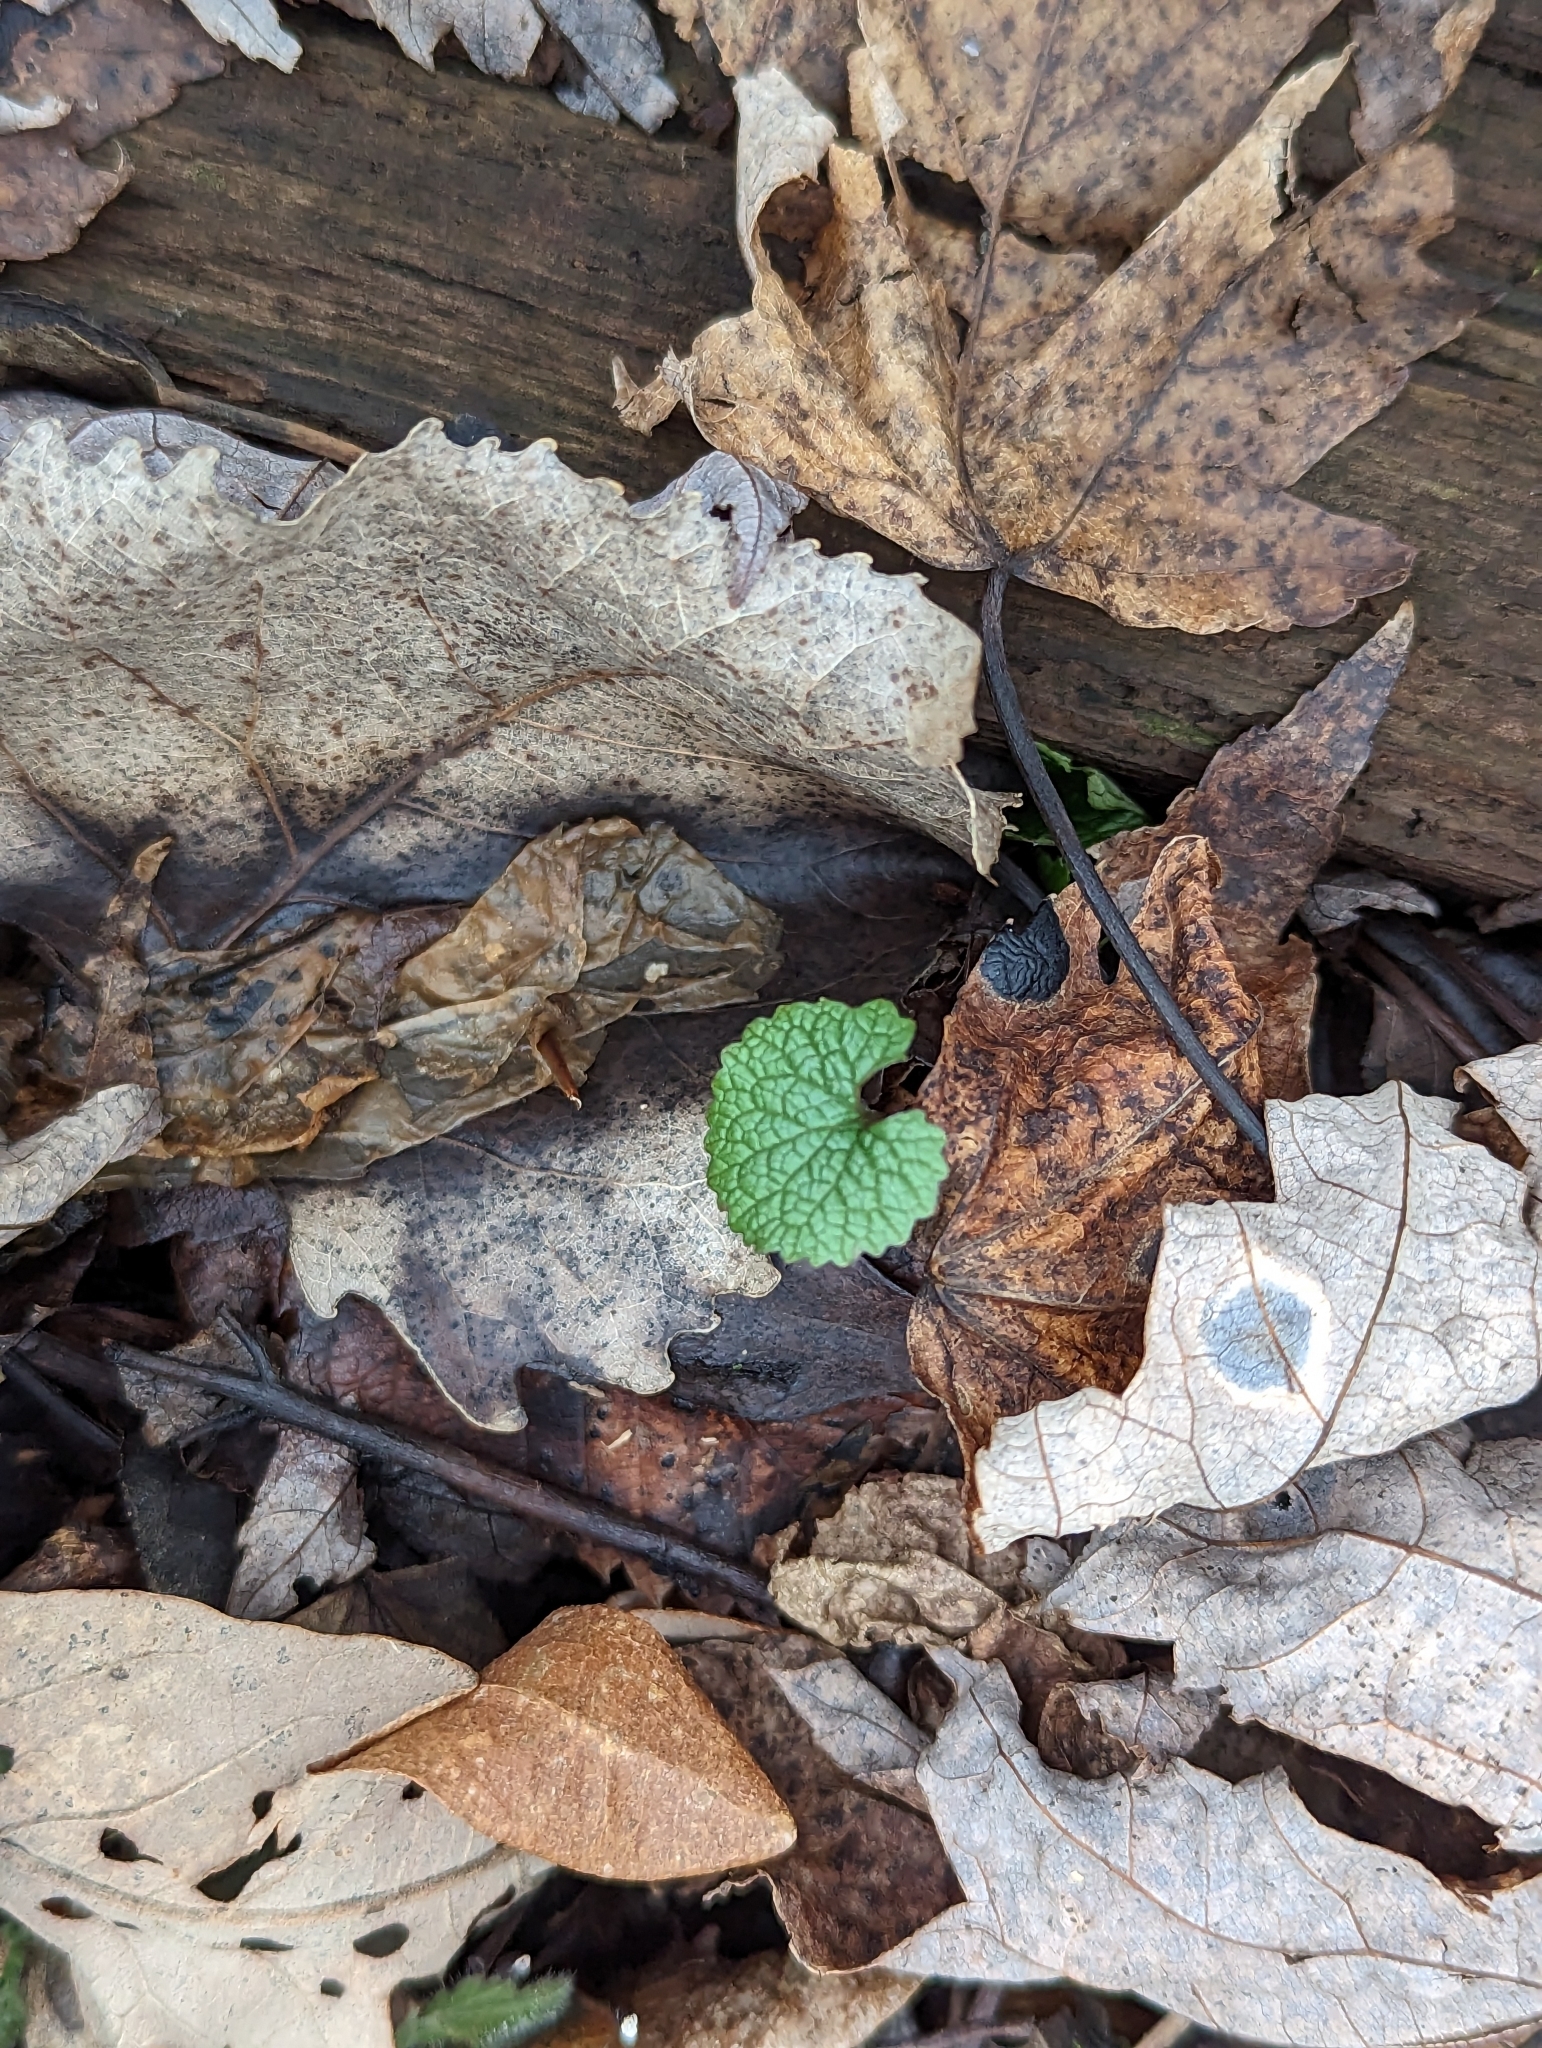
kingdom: Plantae
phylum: Tracheophyta
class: Magnoliopsida
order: Brassicales
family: Brassicaceae
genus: Alliaria
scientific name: Alliaria petiolata
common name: Garlic mustard
